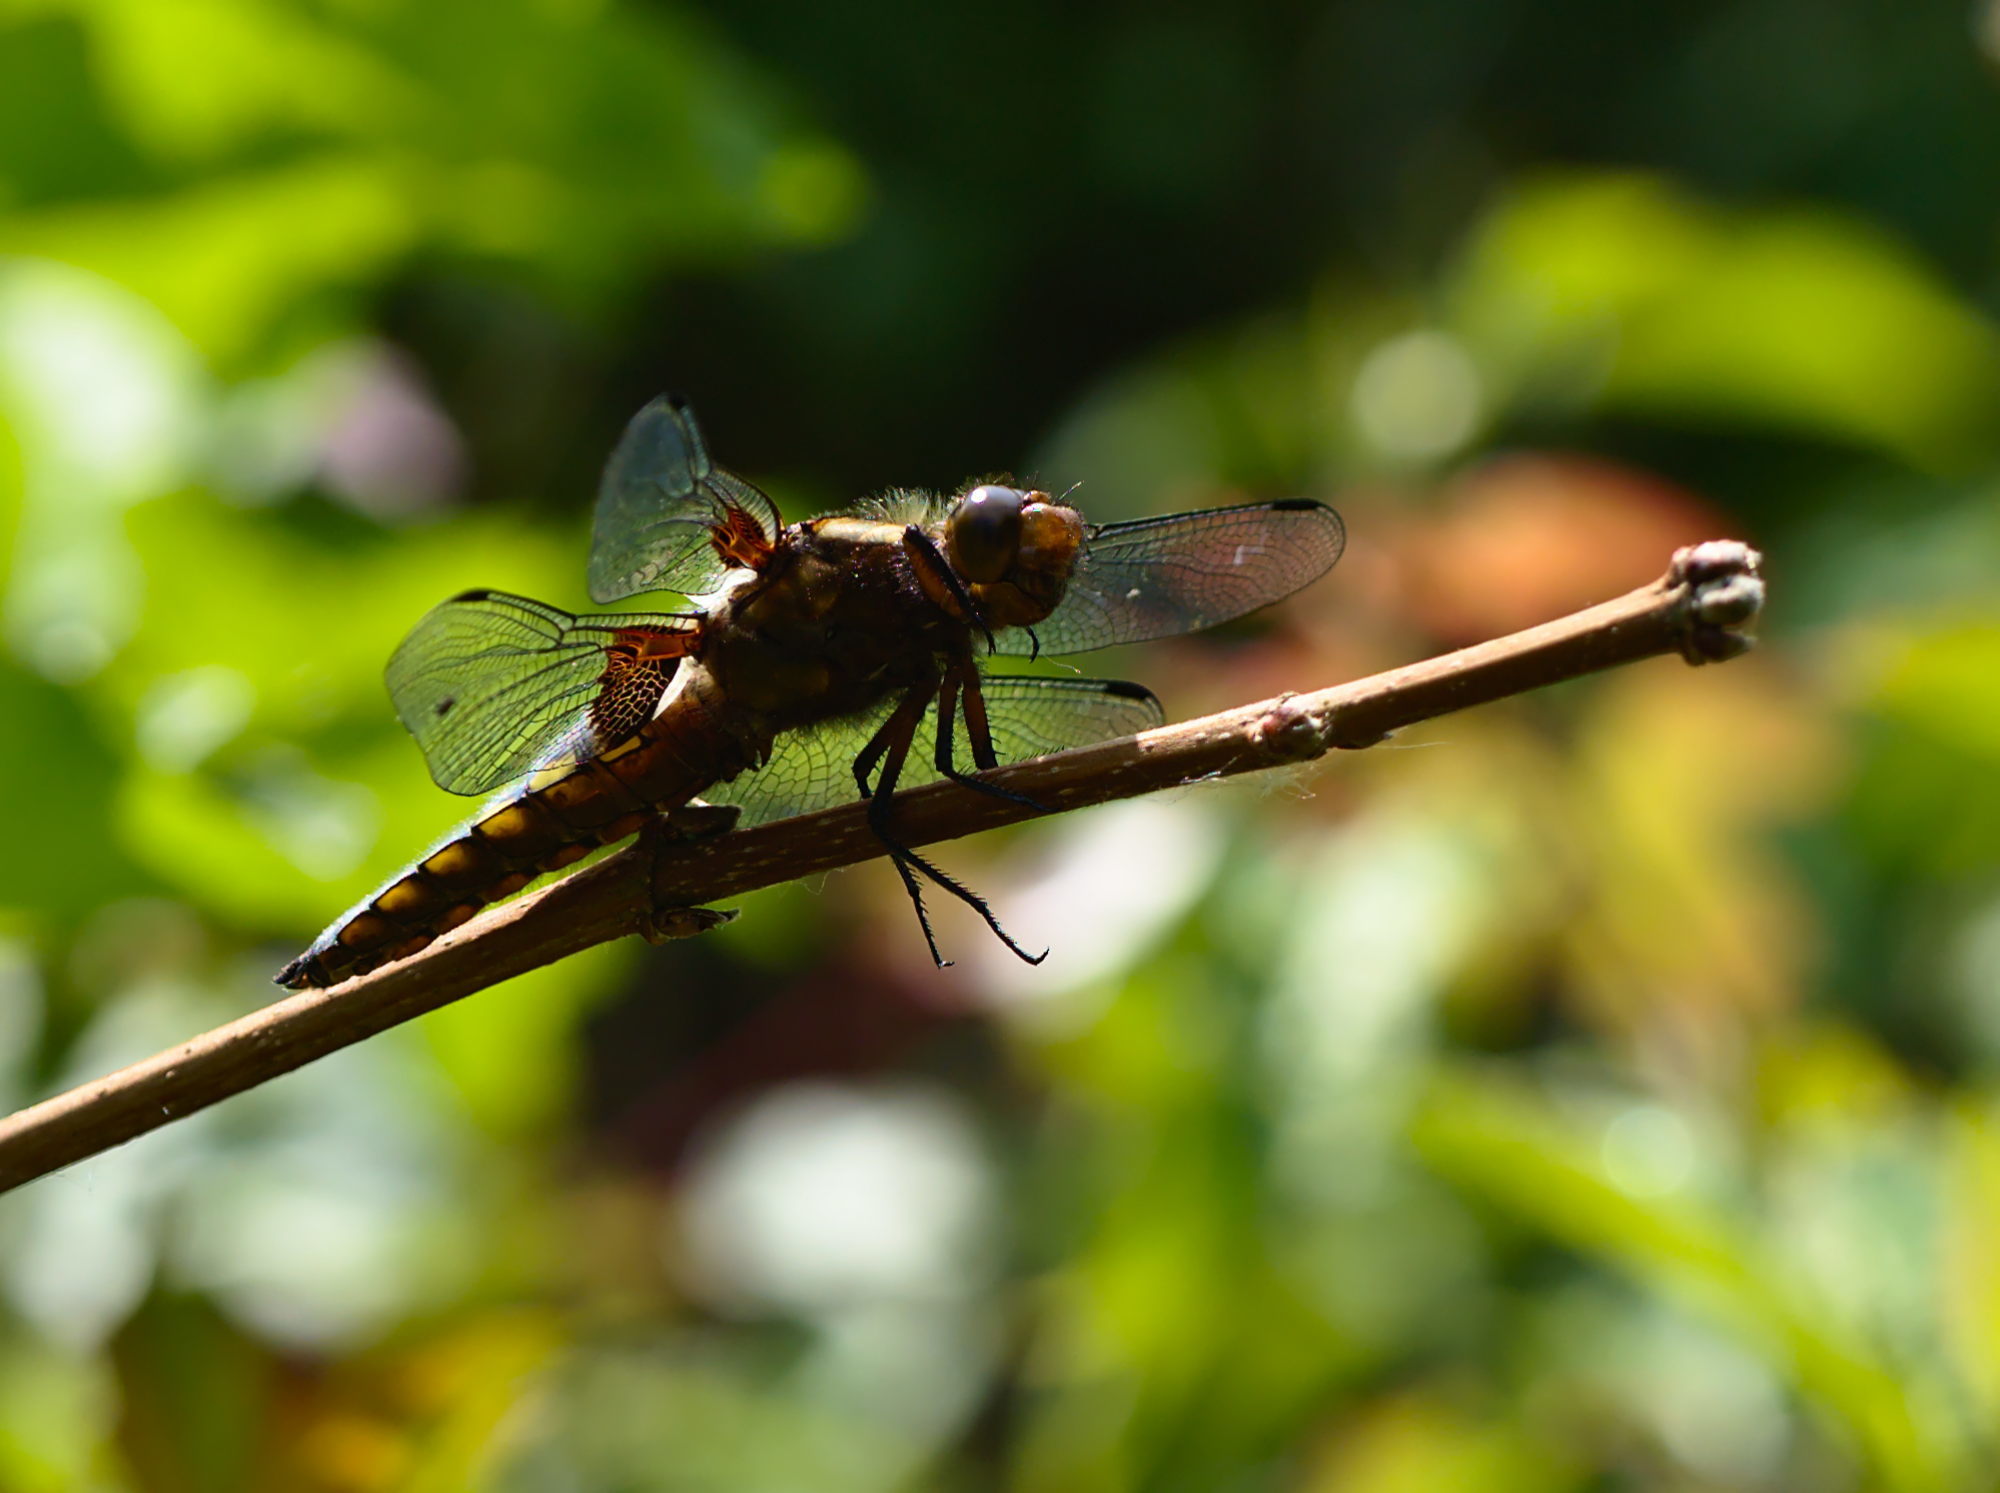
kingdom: Animalia
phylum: Arthropoda
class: Insecta
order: Odonata
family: Libellulidae
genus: Libellula
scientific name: Libellula depressa
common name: Broad-bodied chaser
